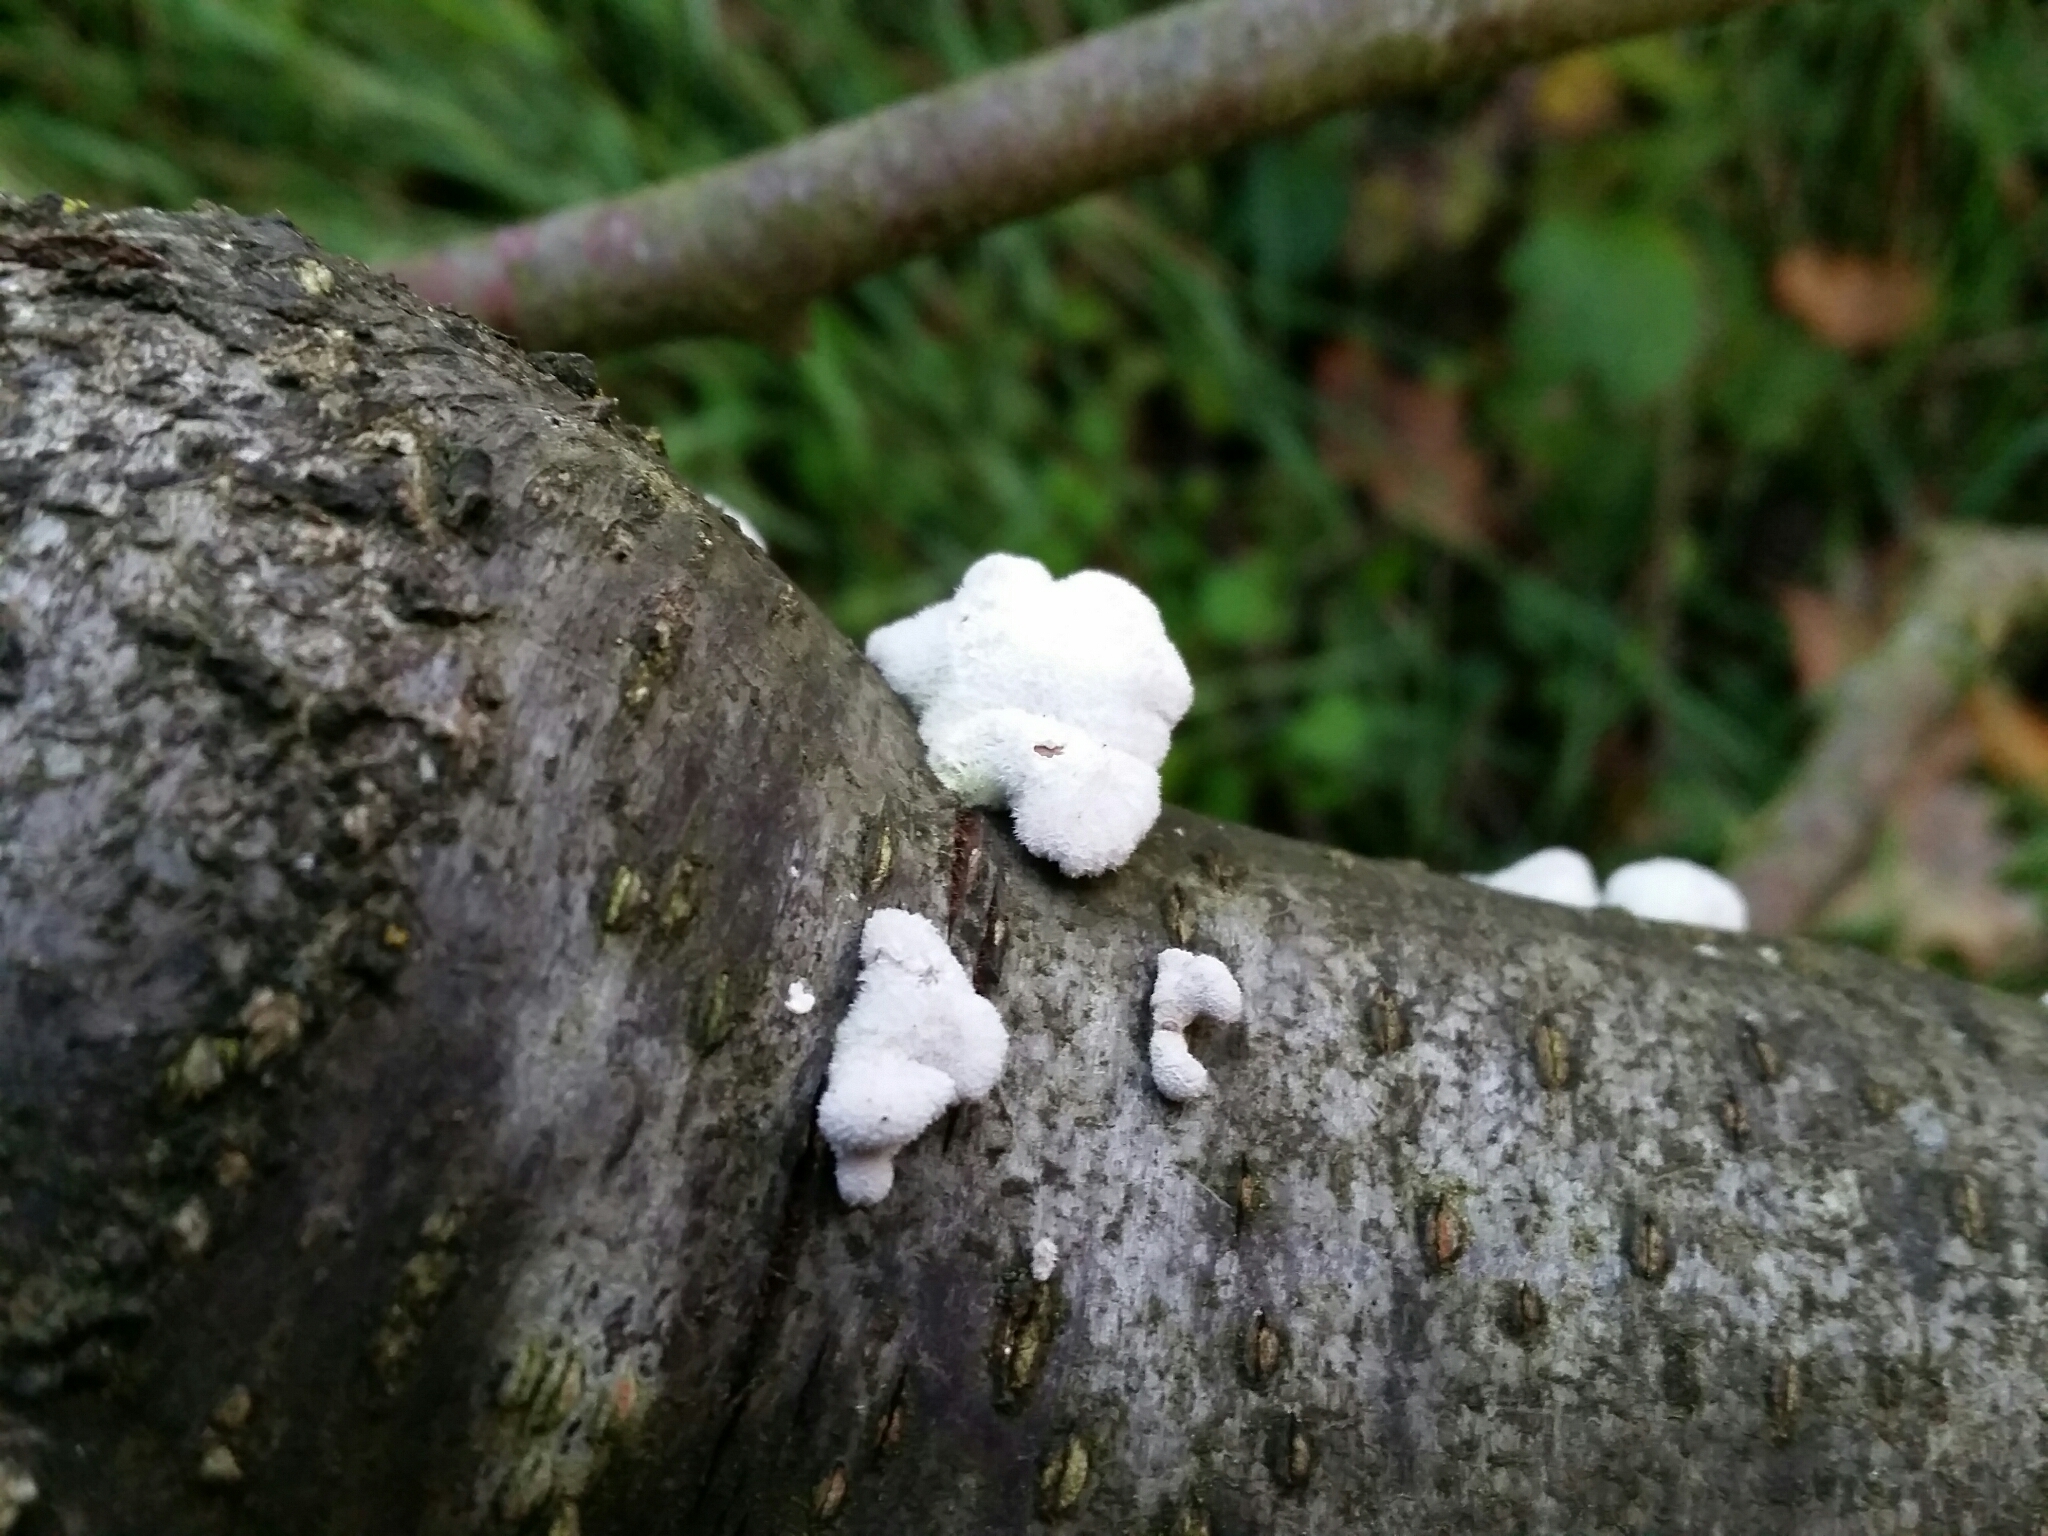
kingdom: Fungi
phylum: Basidiomycota
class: Agaricomycetes
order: Agaricales
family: Schizophyllaceae
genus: Schizophyllum
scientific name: Schizophyllum commune
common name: Common porecrust
